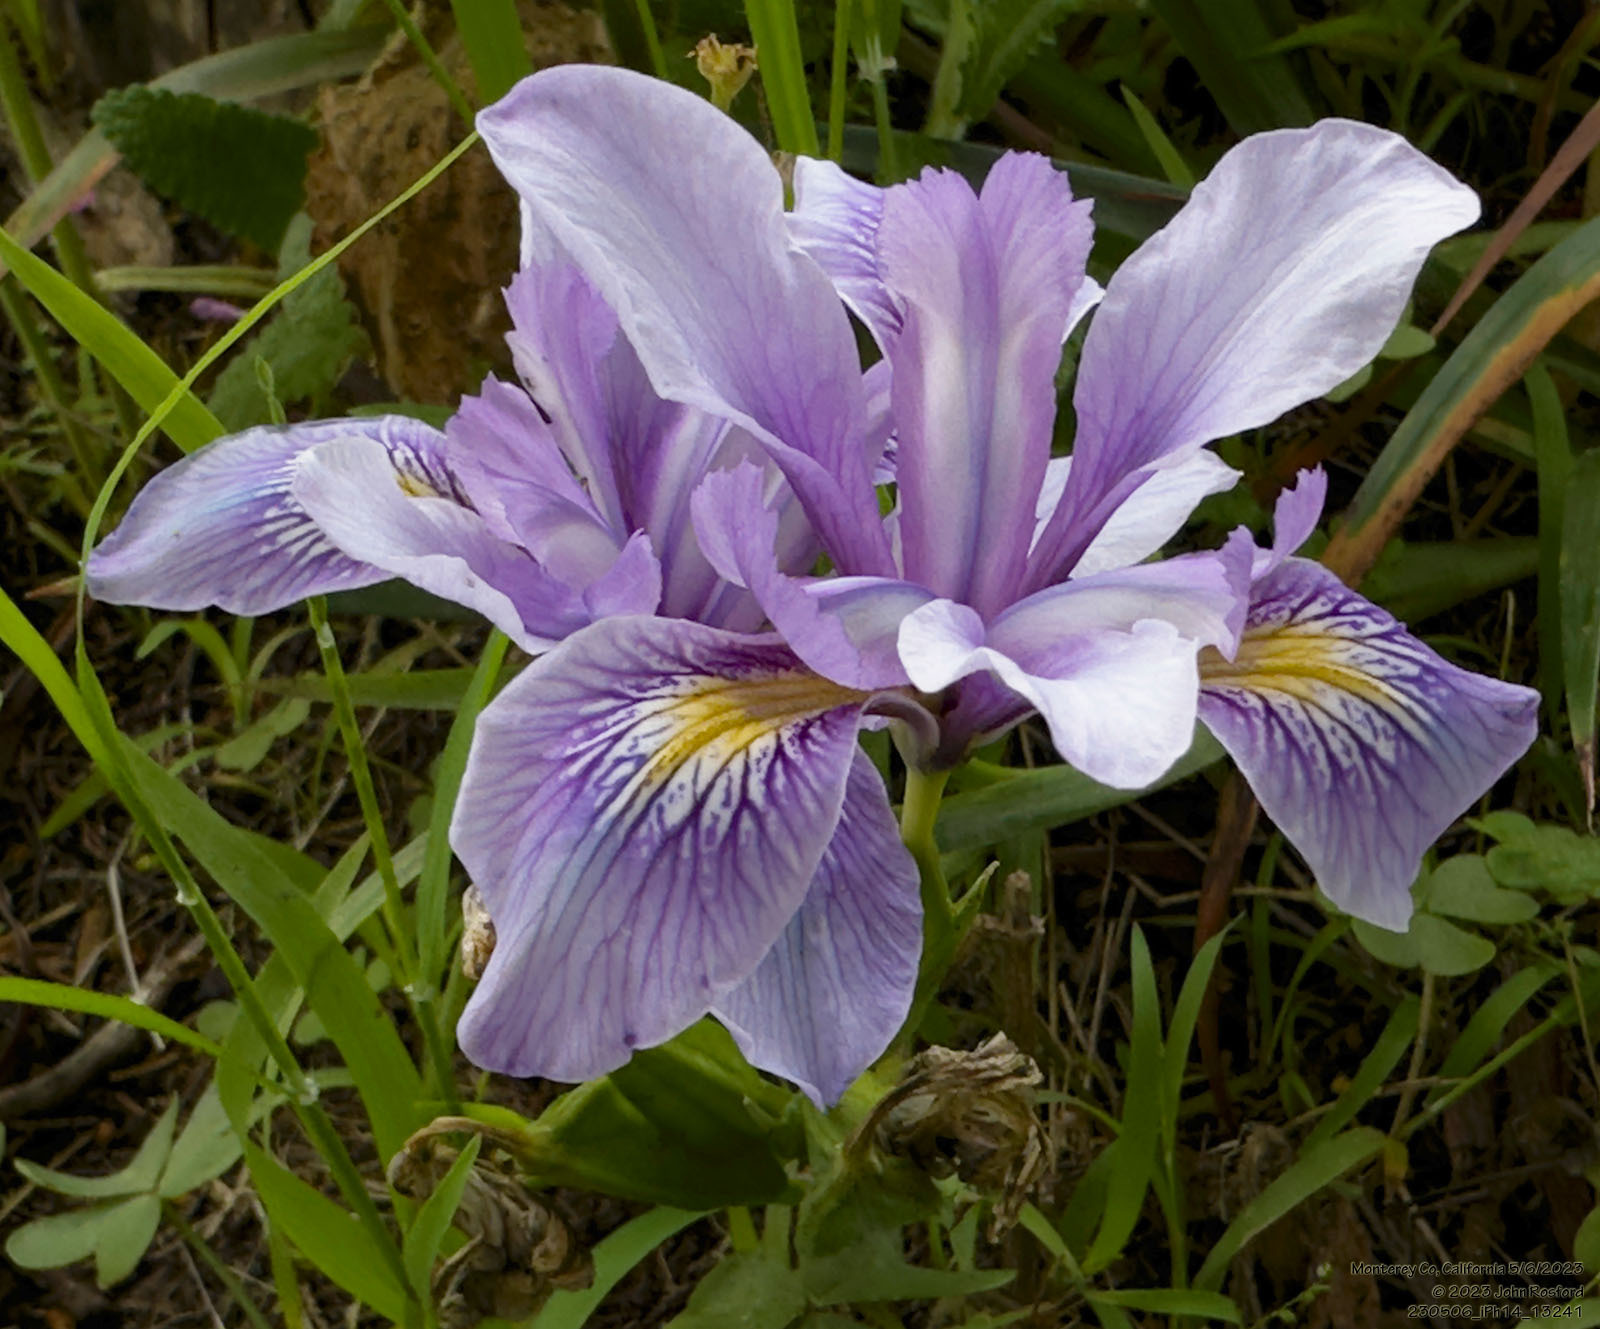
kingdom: Plantae
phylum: Tracheophyta
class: Liliopsida
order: Asparagales
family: Iridaceae
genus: Iris
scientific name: Iris douglasiana
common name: Marin iris
